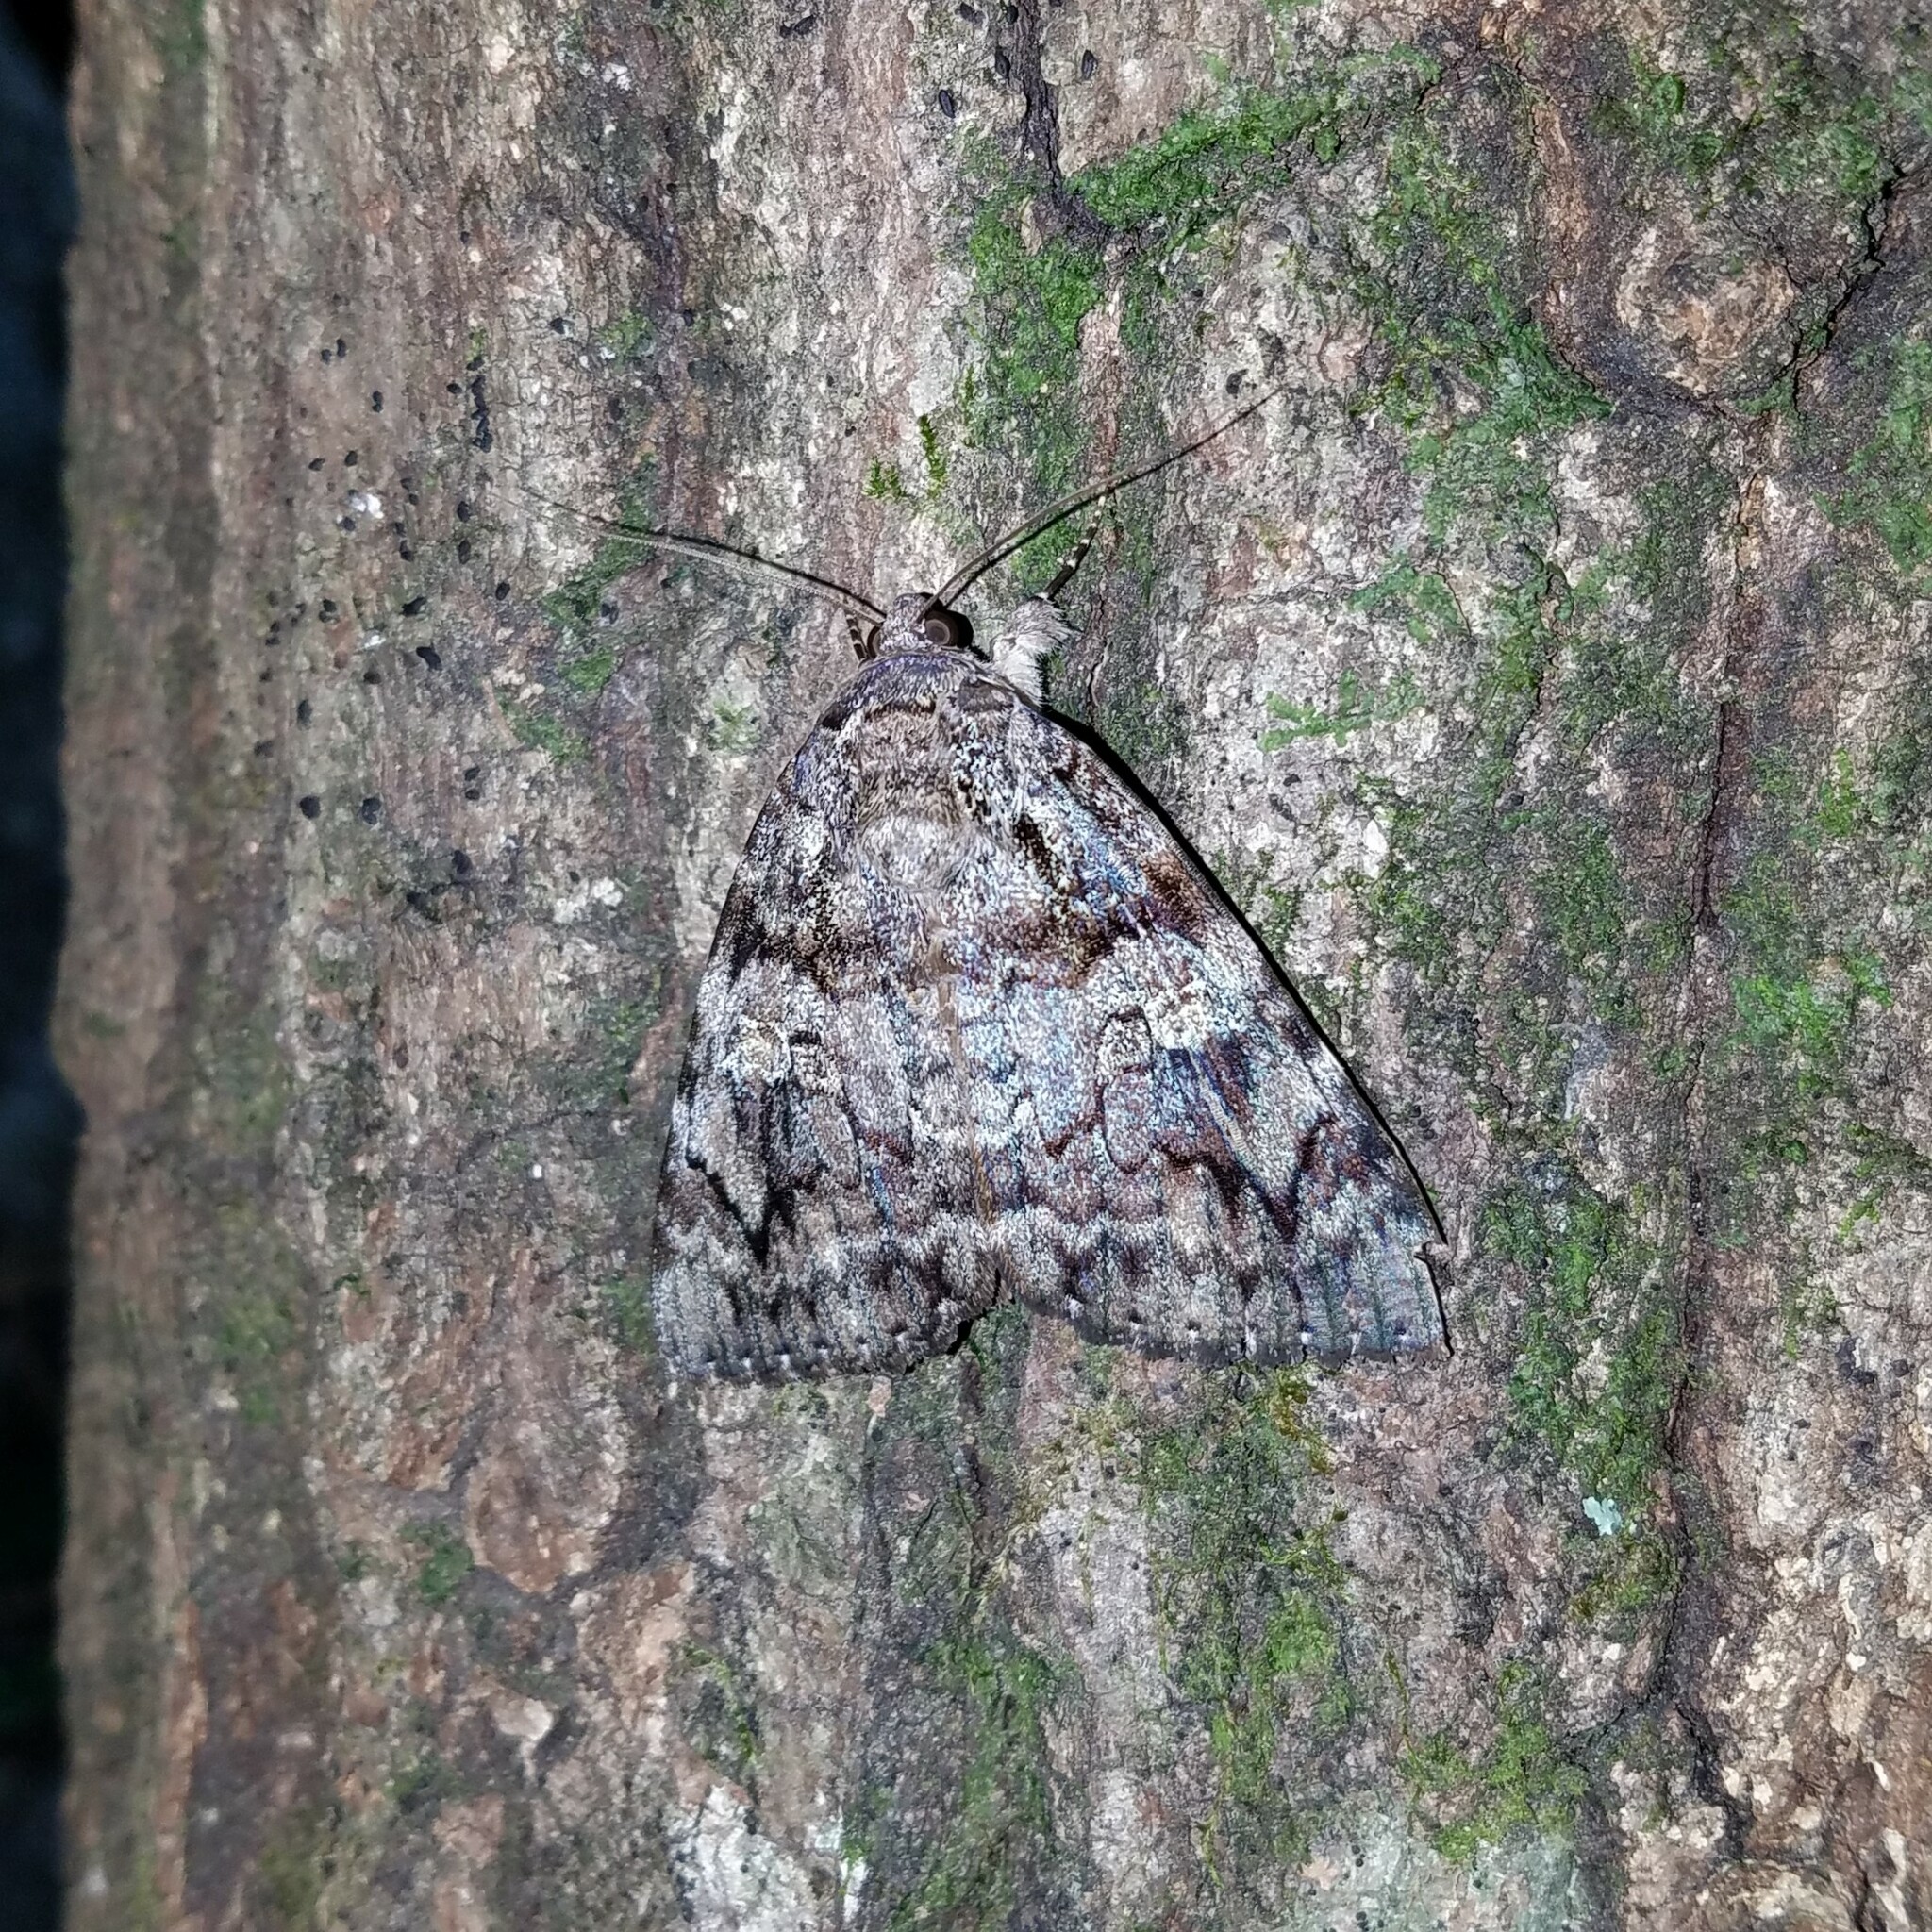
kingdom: Animalia
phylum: Arthropoda
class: Insecta
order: Lepidoptera
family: Erebidae
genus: Catocala
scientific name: Catocala ilia
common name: Ilia underwing
